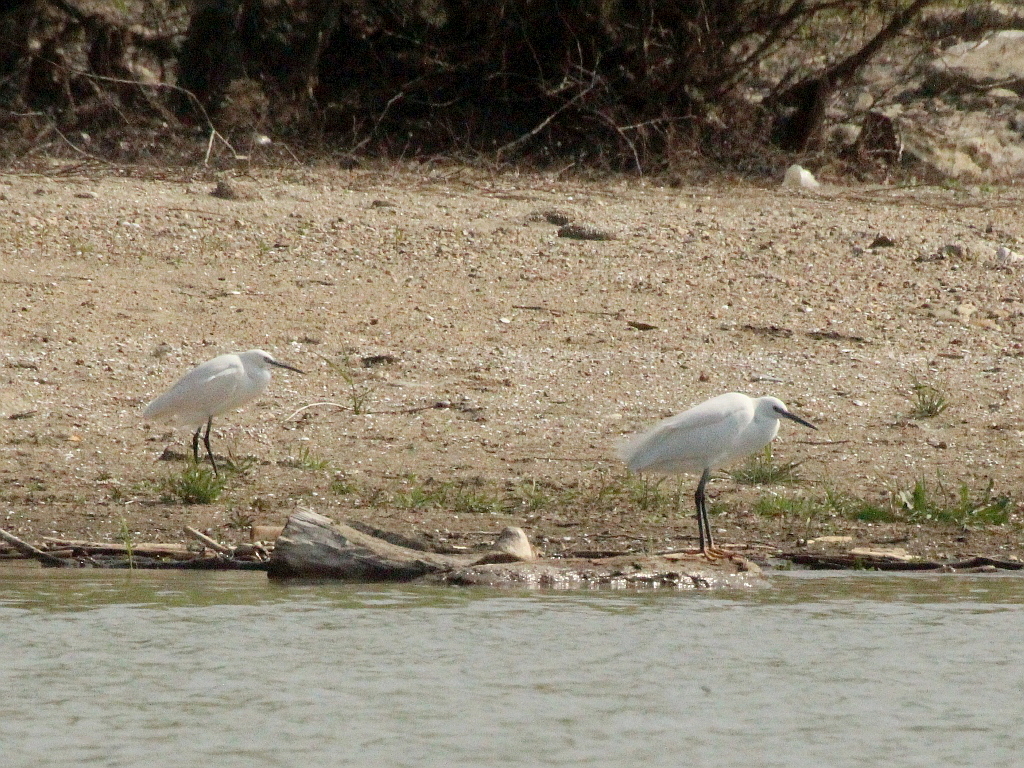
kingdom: Animalia
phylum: Chordata
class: Aves
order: Pelecaniformes
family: Ardeidae
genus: Egretta
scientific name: Egretta garzetta
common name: Little egret
